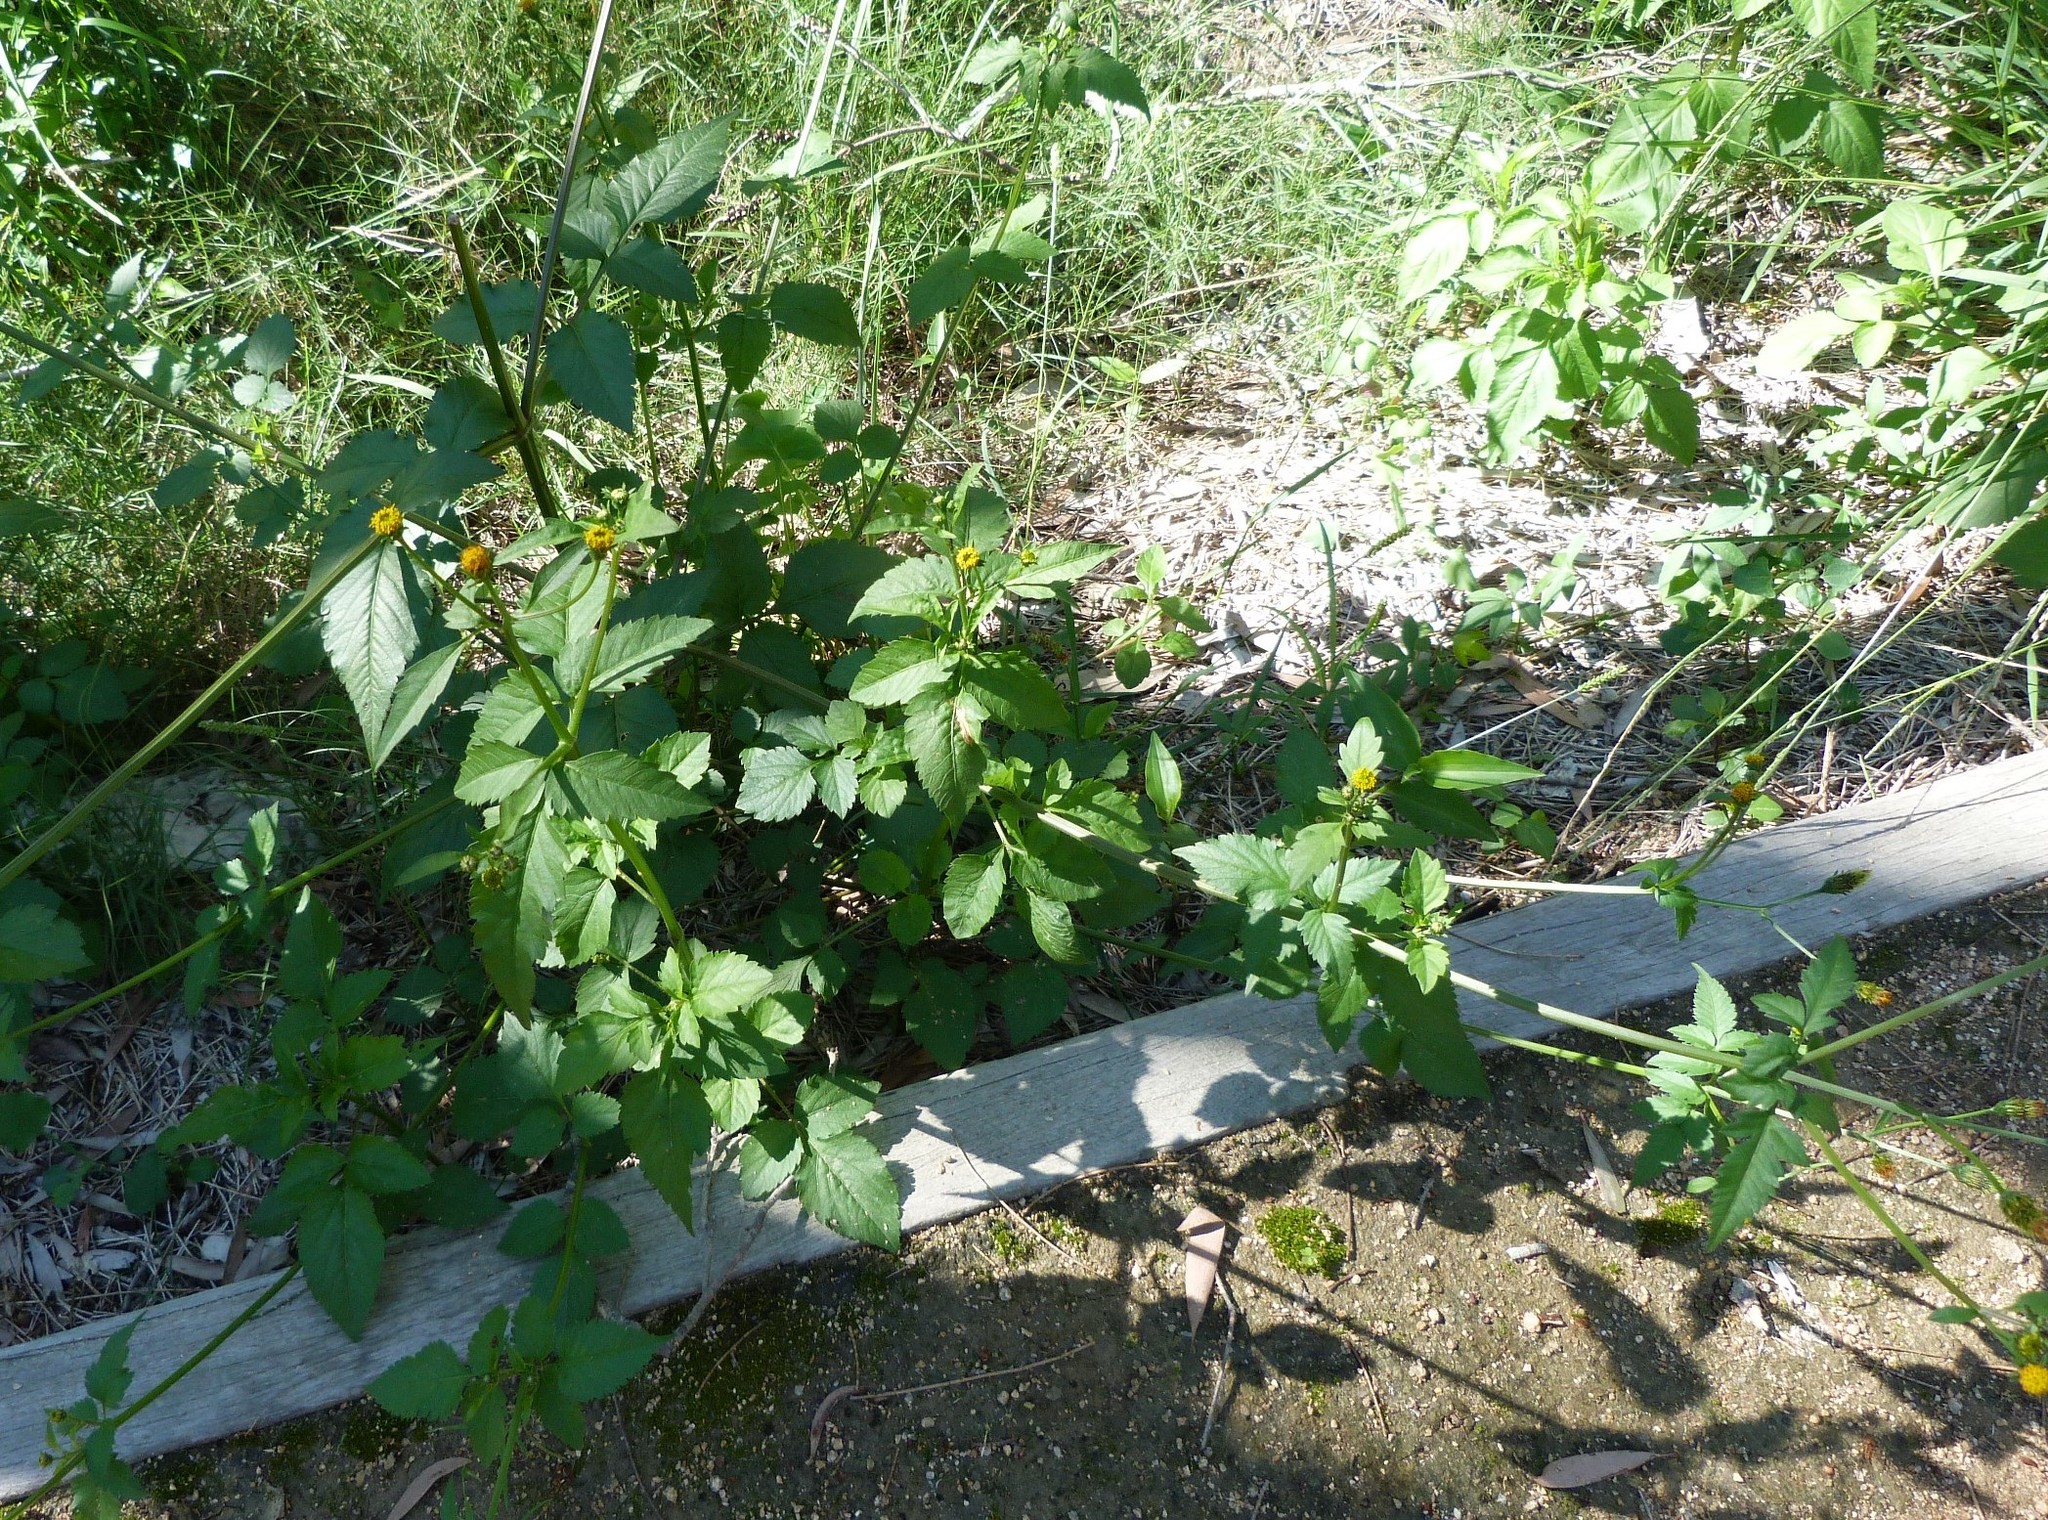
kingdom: Plantae
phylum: Tracheophyta
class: Magnoliopsida
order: Asterales
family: Asteraceae
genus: Bidens
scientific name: Bidens pilosa
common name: Black-jack
